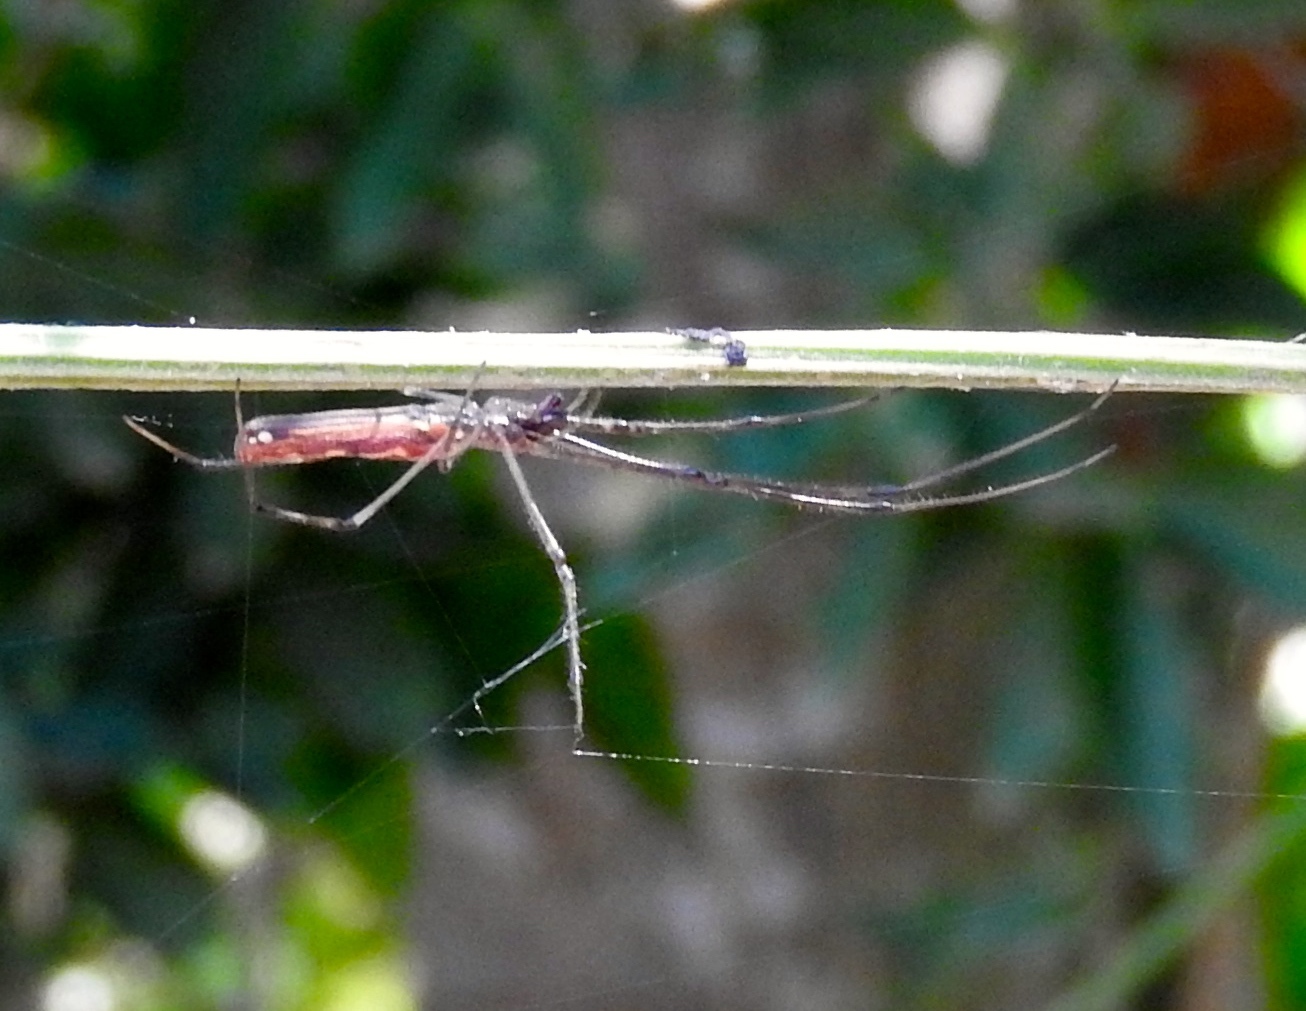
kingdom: Animalia
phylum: Arthropoda
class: Arachnida
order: Araneae
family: Tetragnathidae
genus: Tetragnatha
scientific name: Tetragnatha
